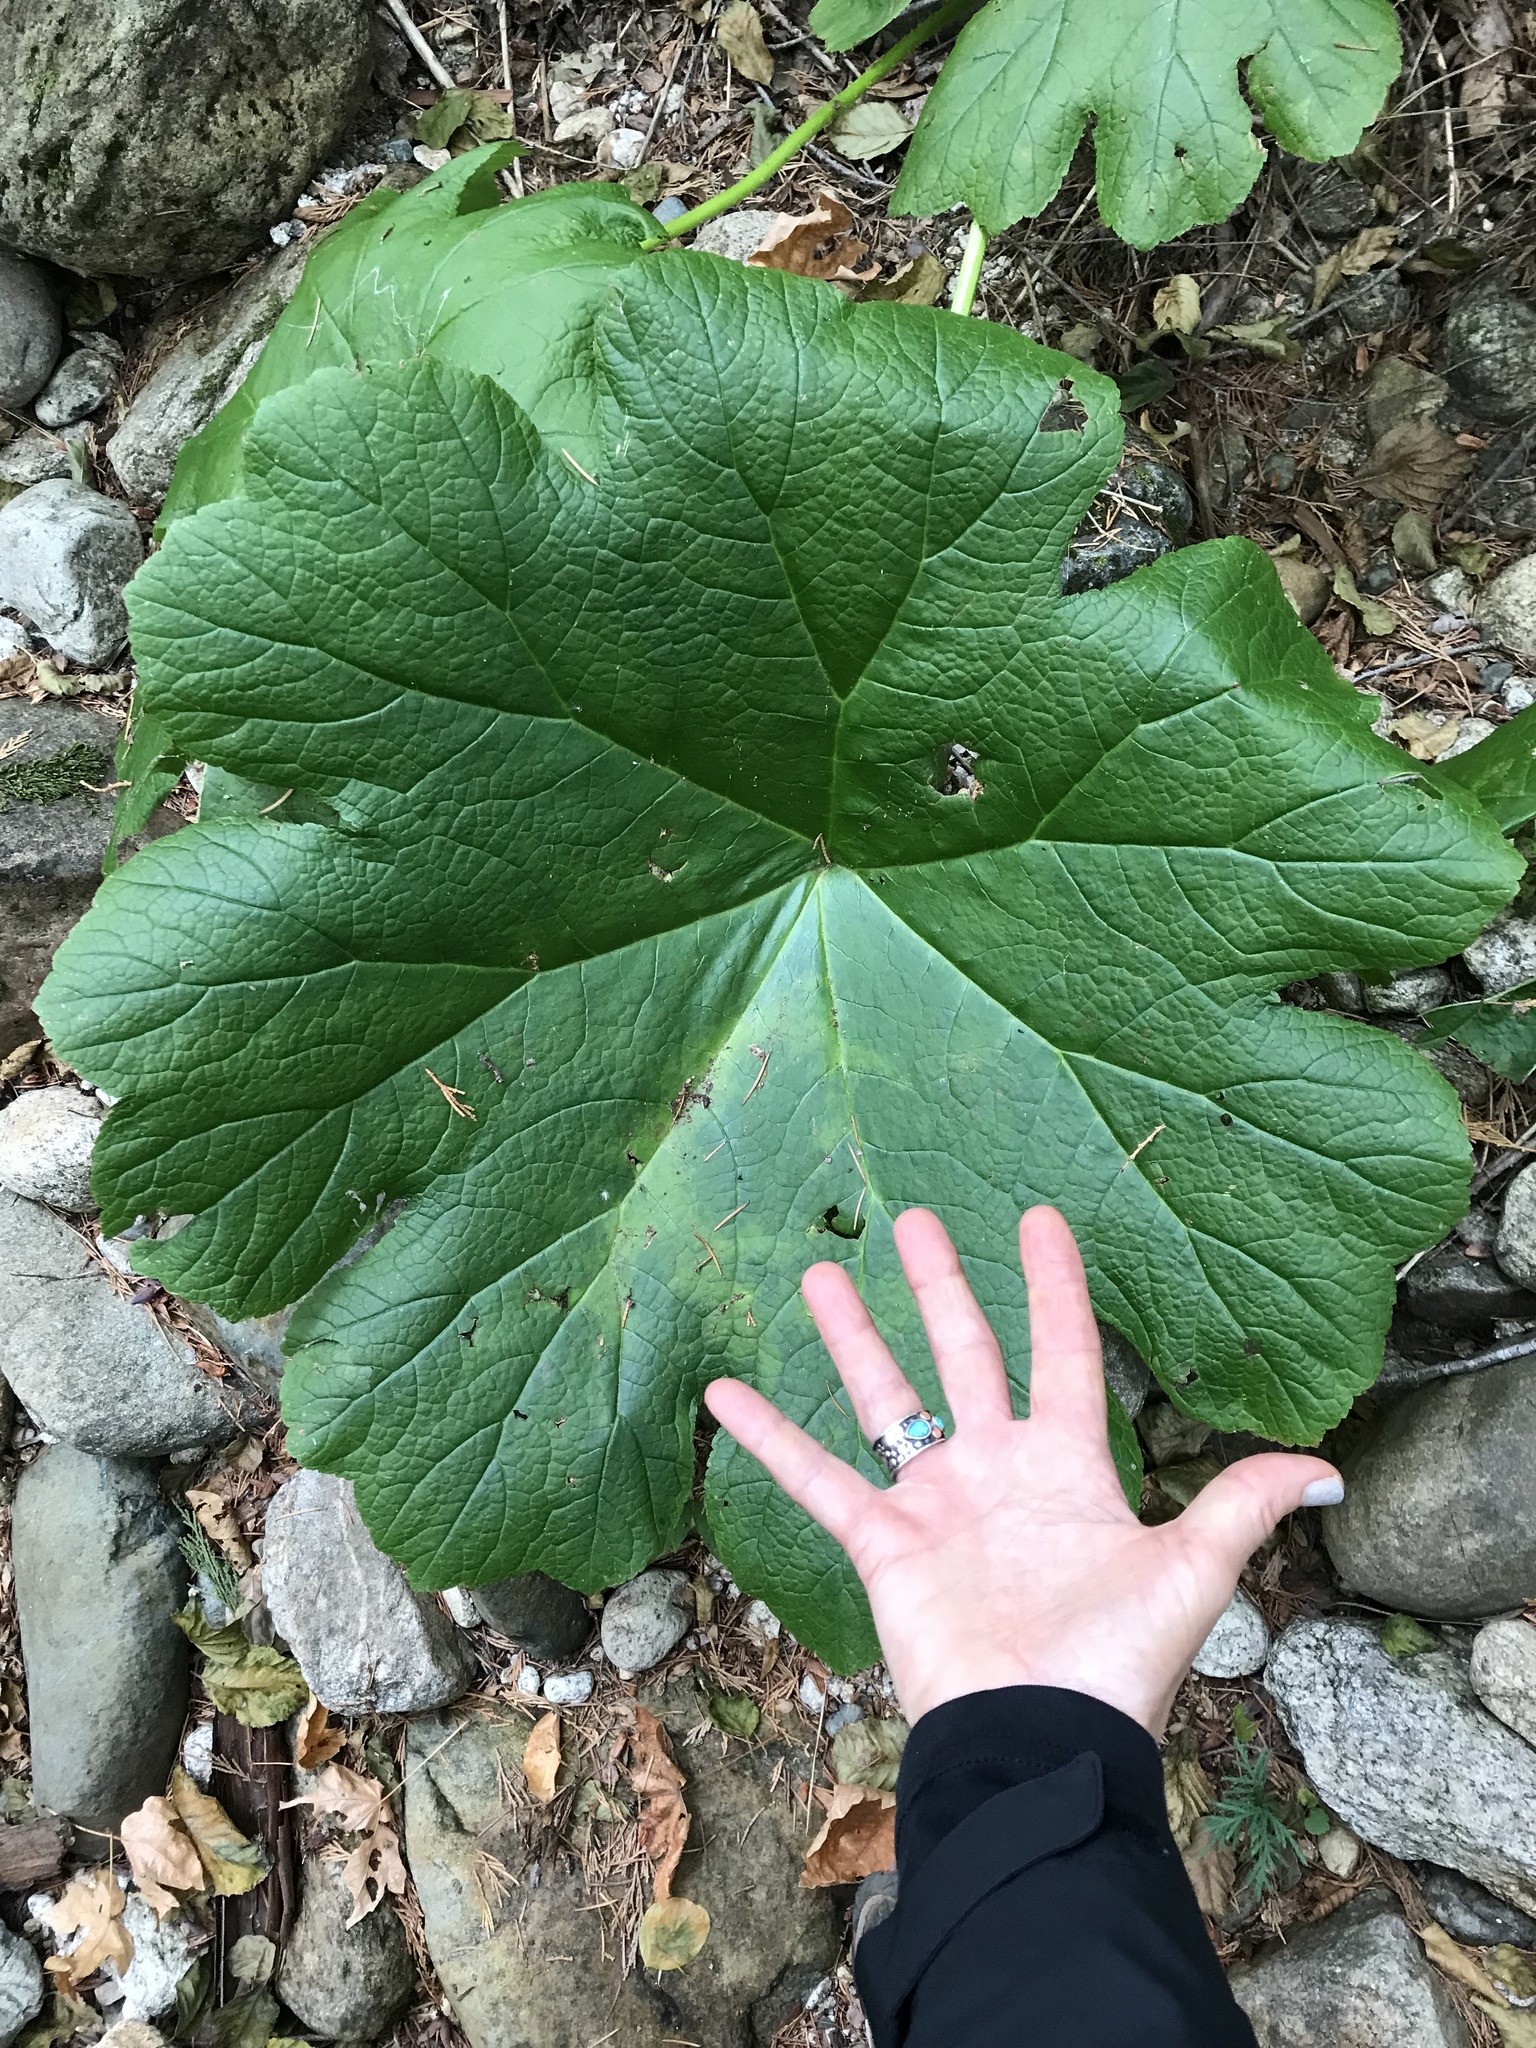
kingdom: Plantae
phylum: Tracheophyta
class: Magnoliopsida
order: Saxifragales
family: Saxifragaceae
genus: Darmera
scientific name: Darmera peltata
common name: Indian-rhubarb
